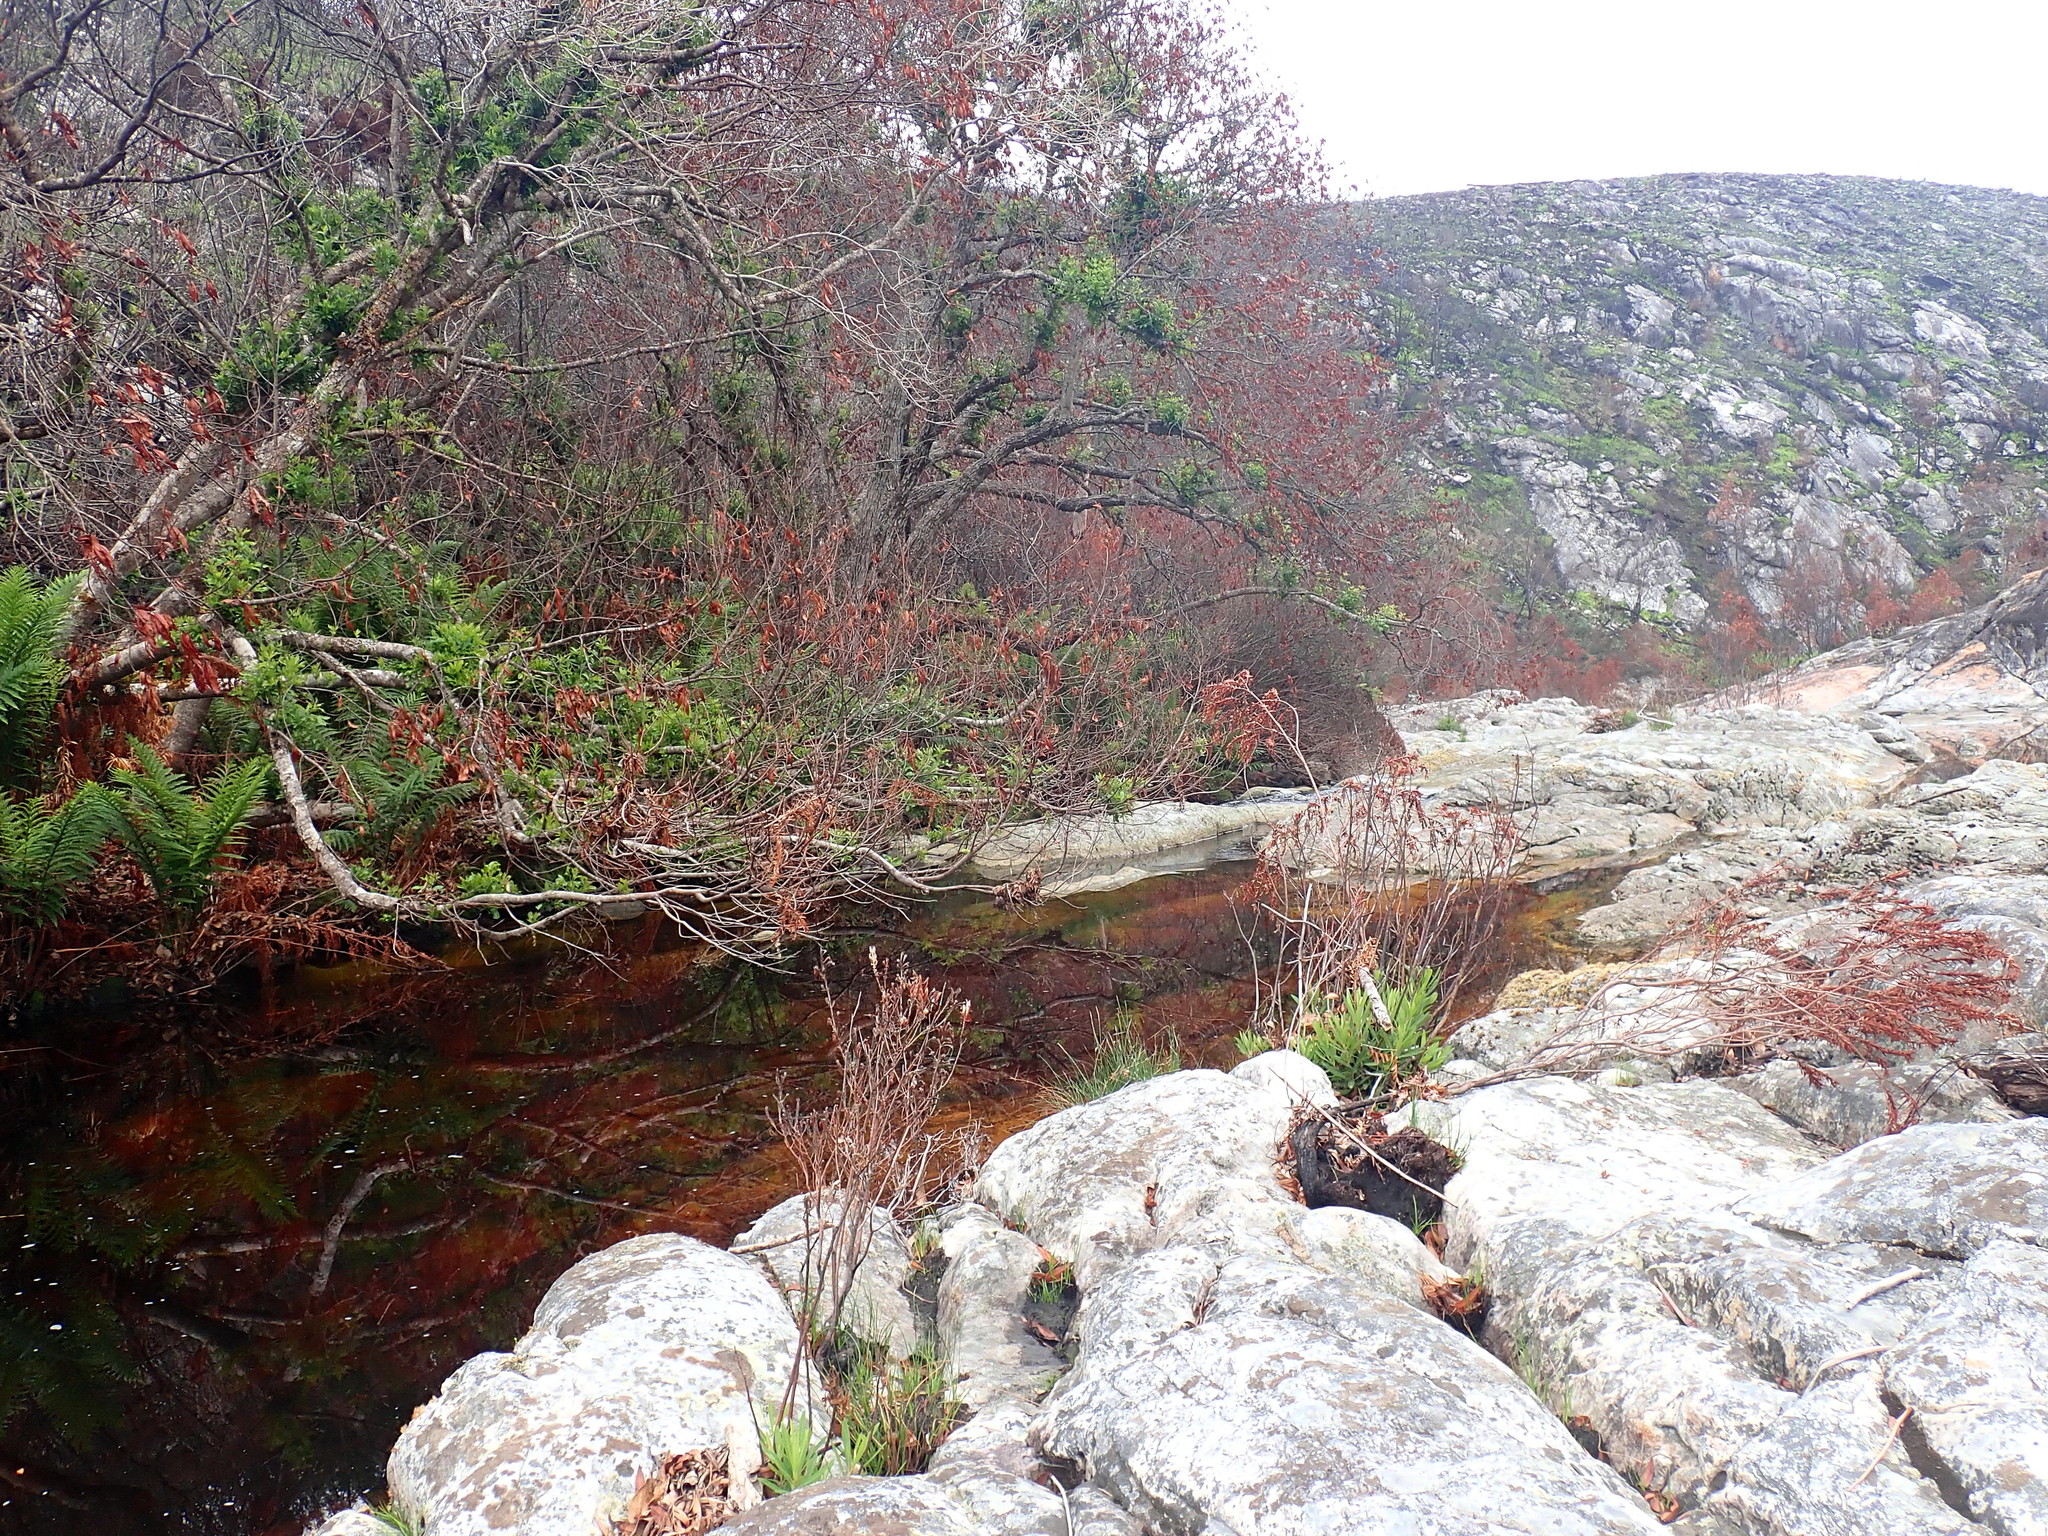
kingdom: Plantae
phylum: Tracheophyta
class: Polypodiopsida
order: Polypodiales
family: Blechnaceae
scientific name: Blechnaceae
